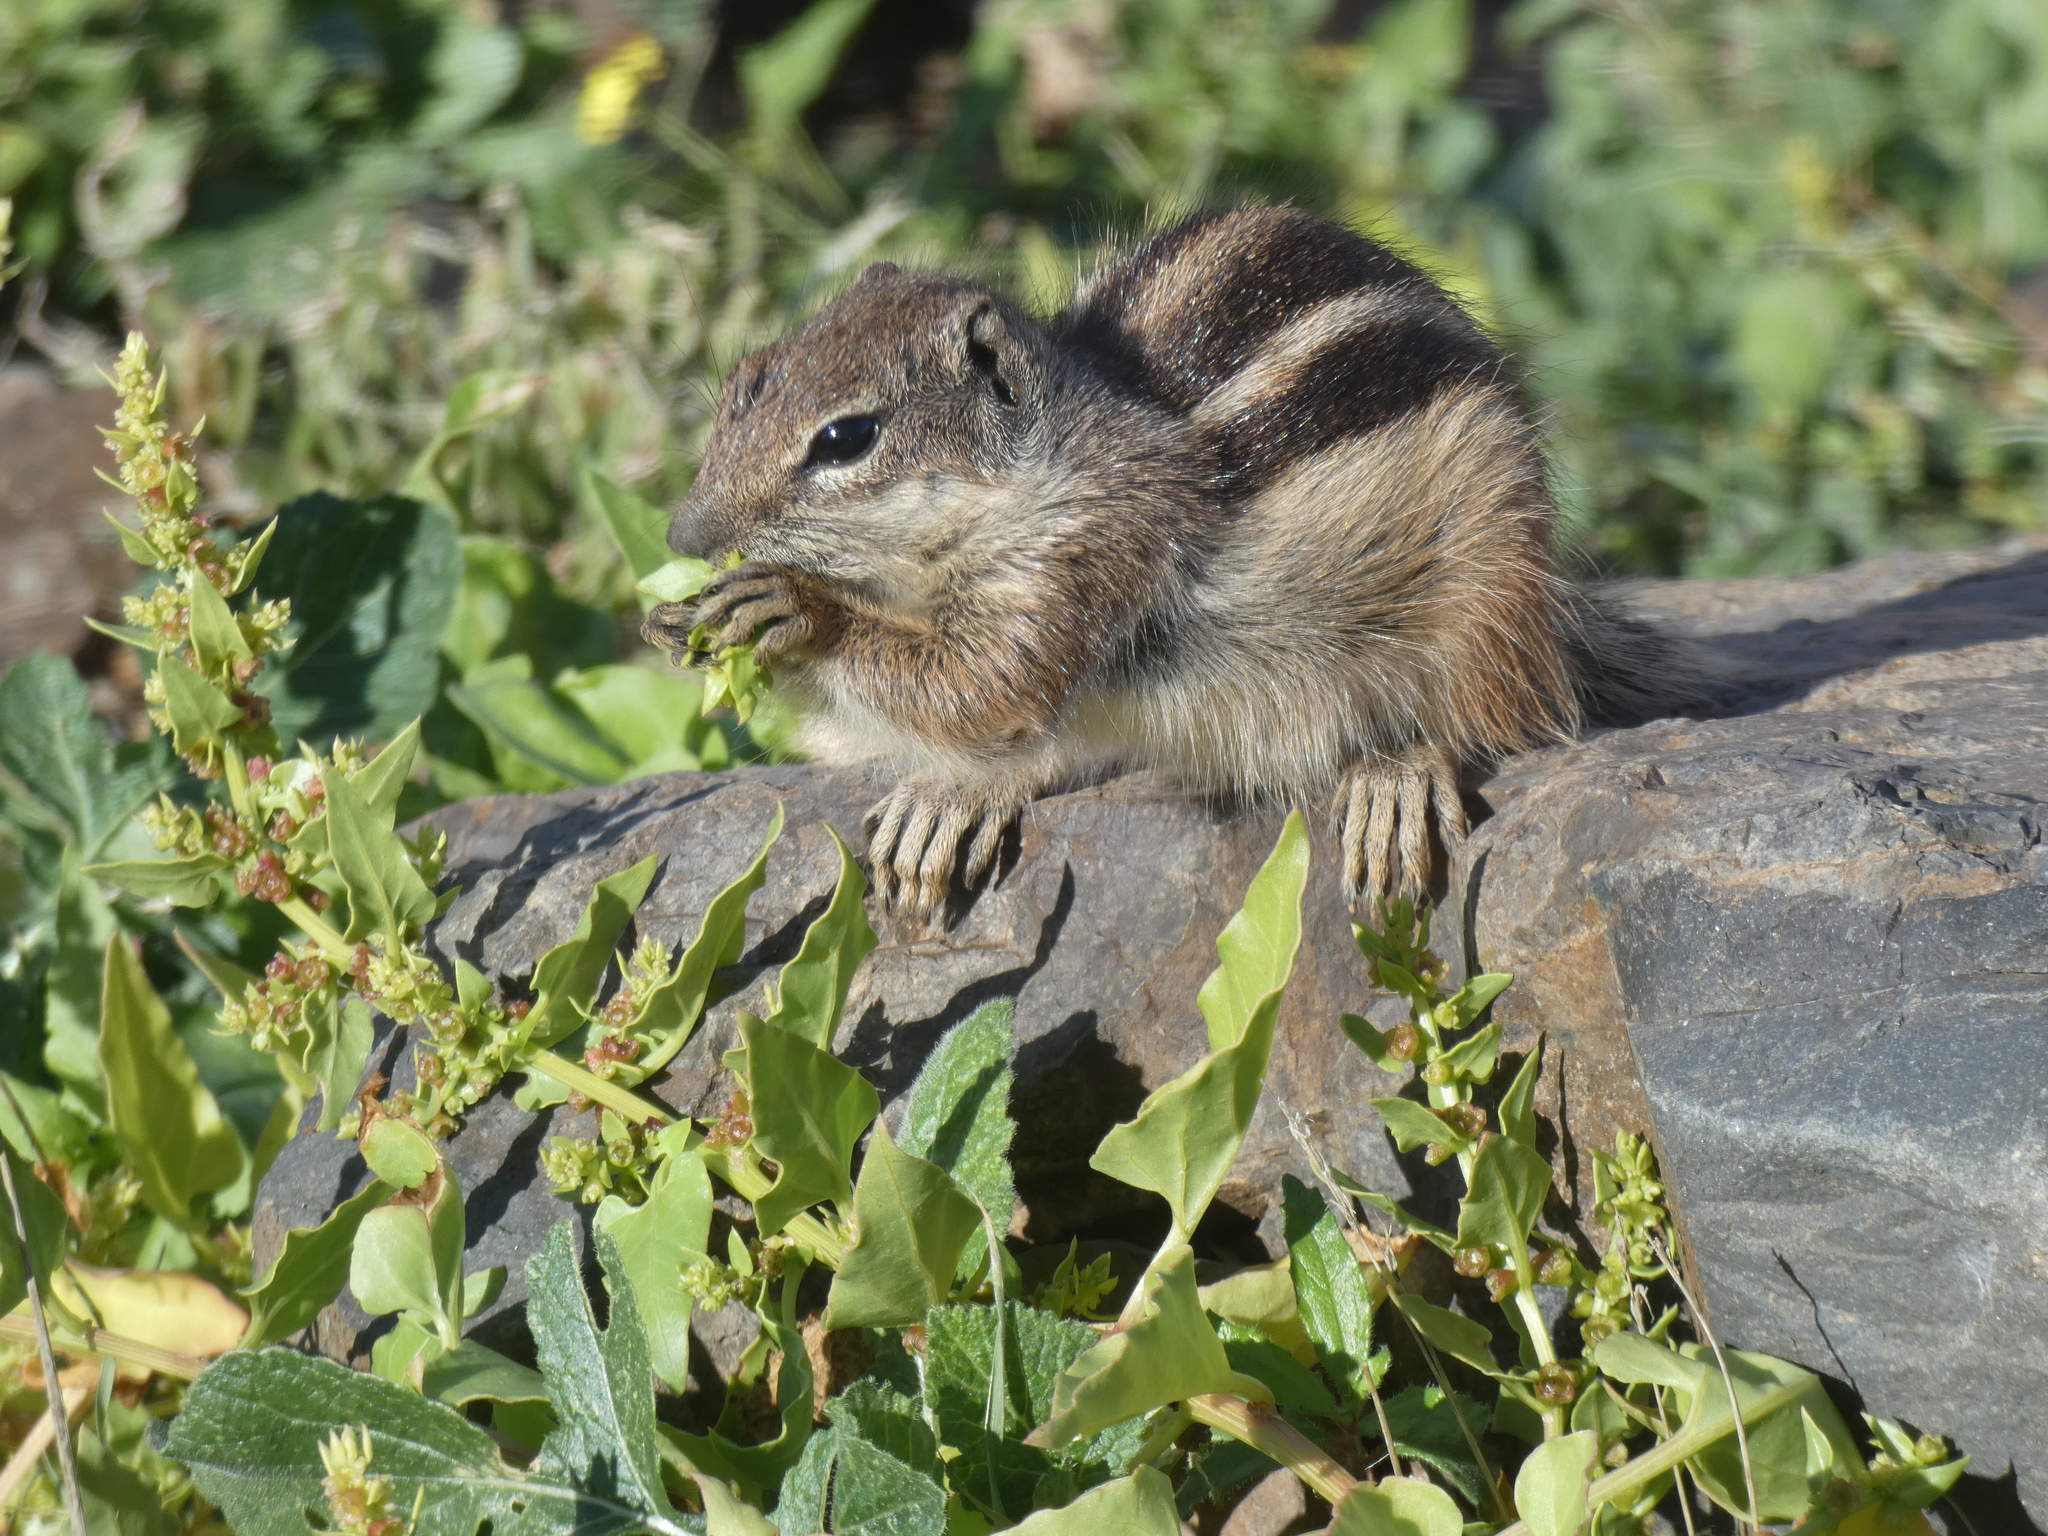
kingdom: Animalia
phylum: Chordata
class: Mammalia
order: Rodentia
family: Sciuridae
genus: Atlantoxerus
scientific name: Atlantoxerus getulus
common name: Barbary ground squirrel
